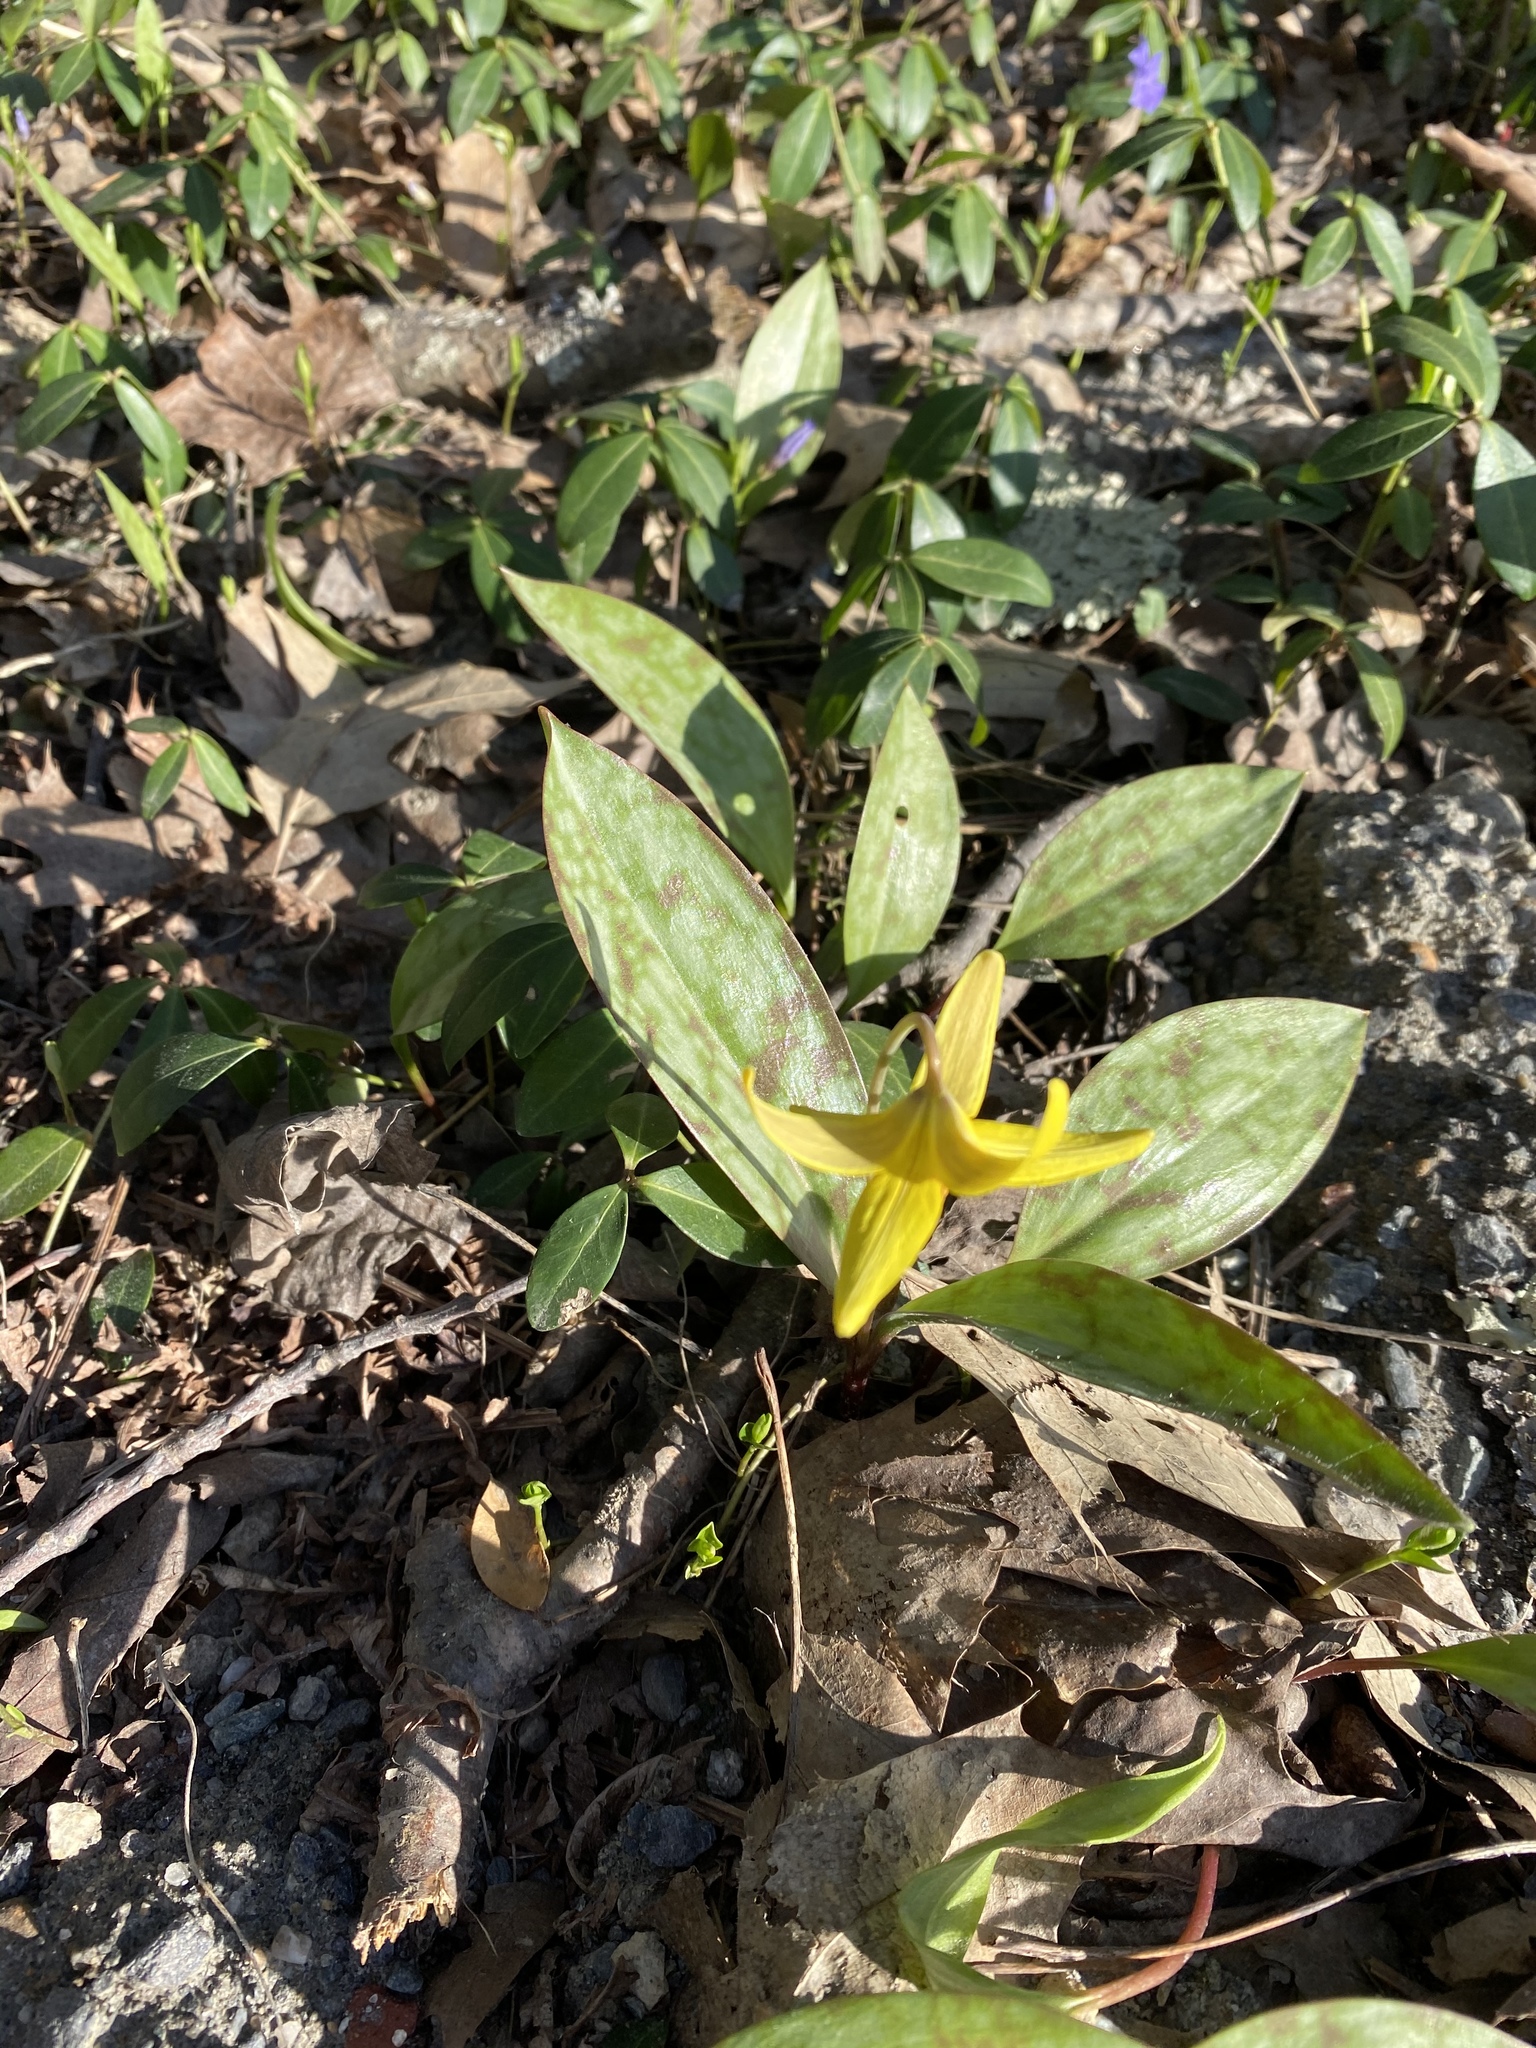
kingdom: Plantae
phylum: Tracheophyta
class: Liliopsida
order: Liliales
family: Liliaceae
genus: Erythronium
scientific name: Erythronium americanum
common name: Yellow adder's-tongue
